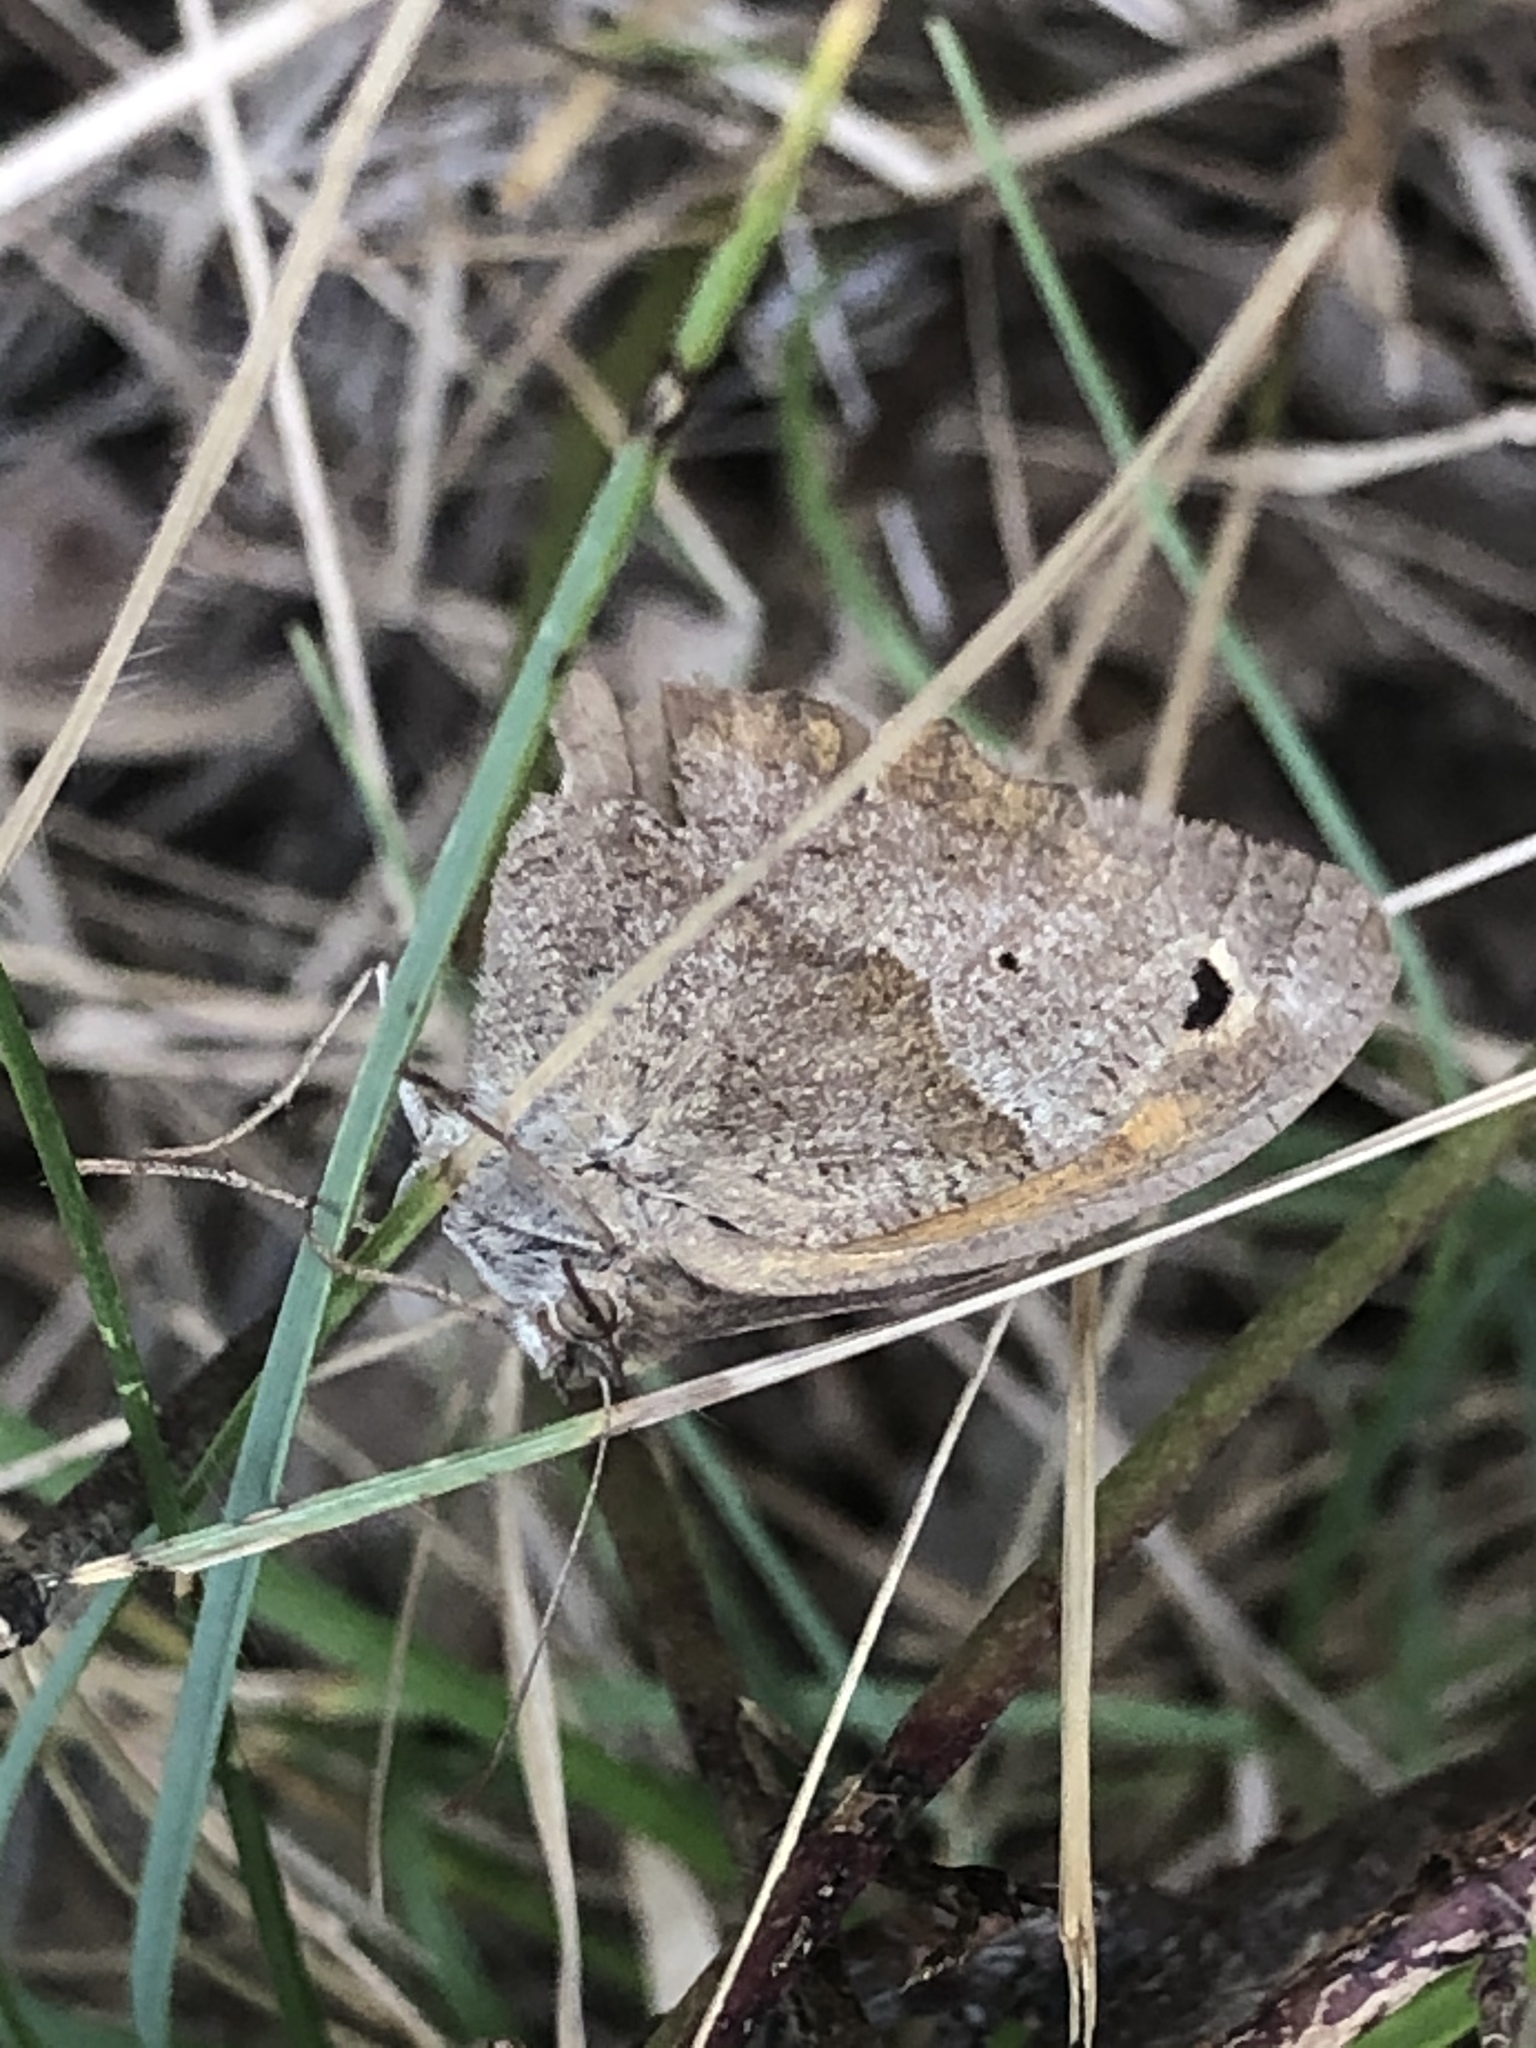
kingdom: Animalia
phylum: Arthropoda
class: Insecta
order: Lepidoptera
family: Nymphalidae
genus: Maniola
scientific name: Maniola jurtina
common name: Meadow brown
